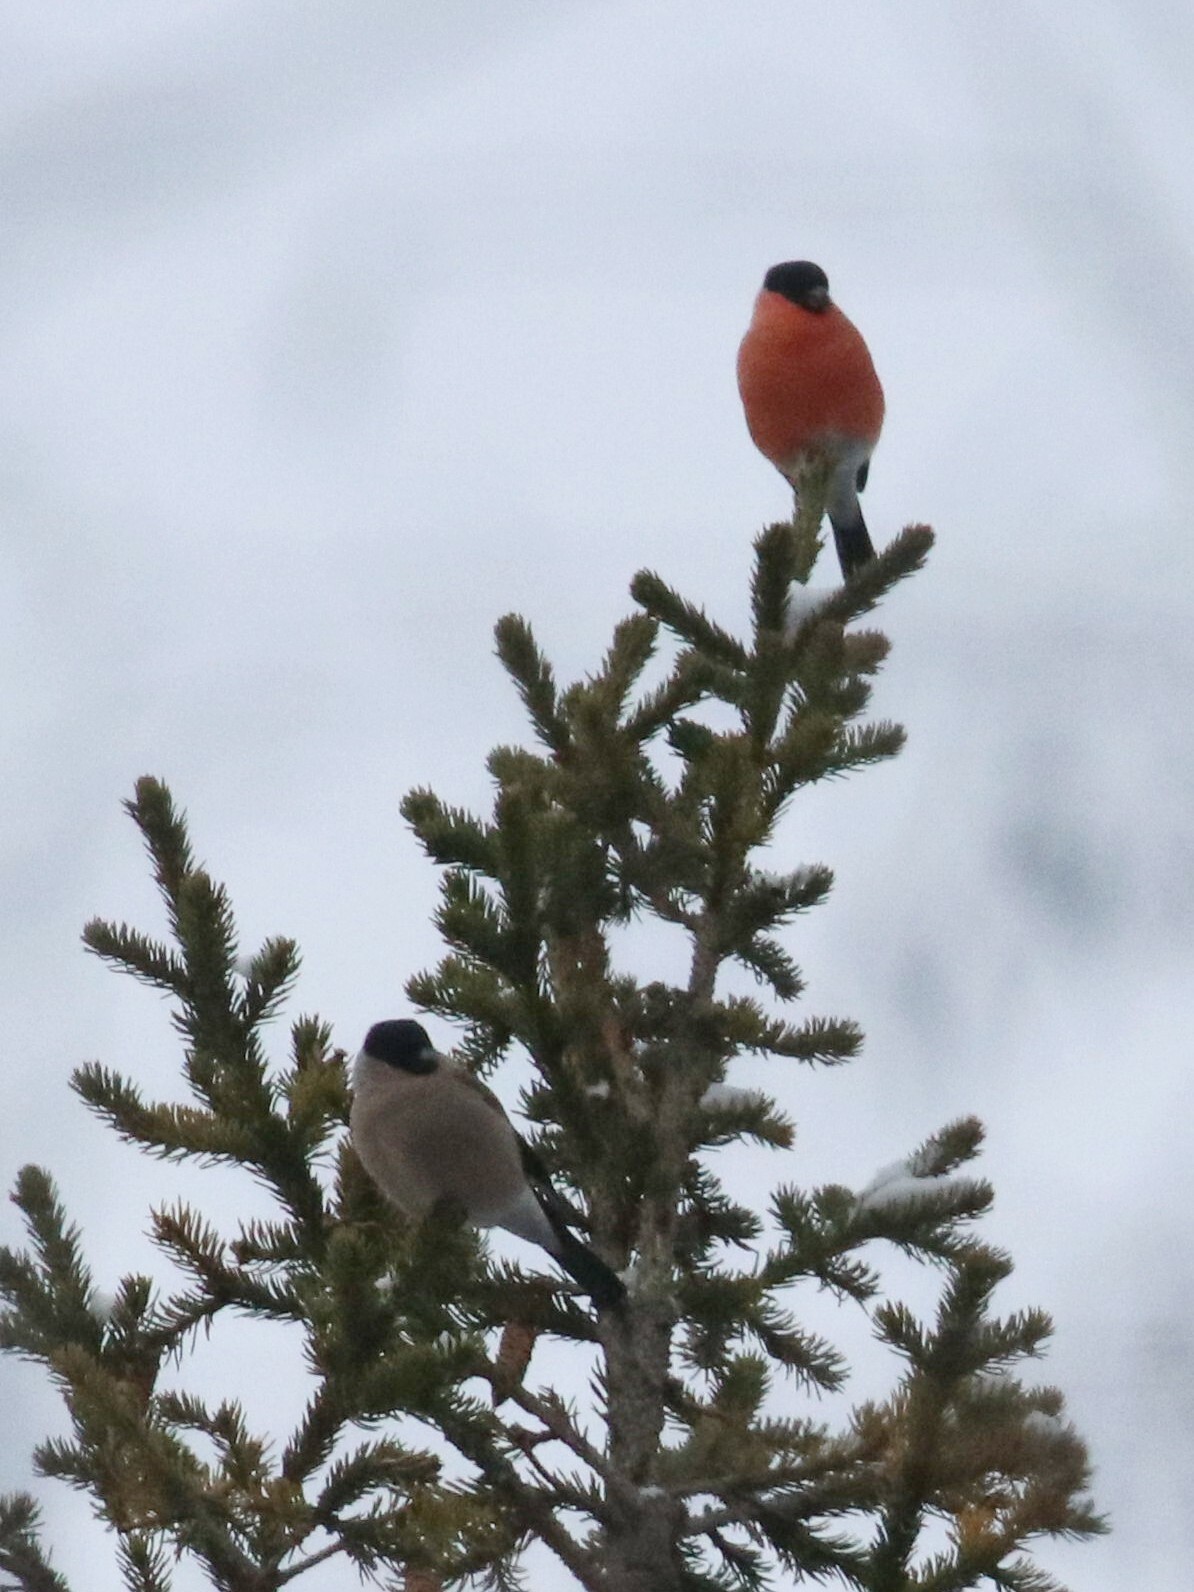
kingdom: Animalia
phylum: Chordata
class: Aves
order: Passeriformes
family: Fringillidae
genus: Pyrrhula
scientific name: Pyrrhula pyrrhula
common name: Eurasian bullfinch
